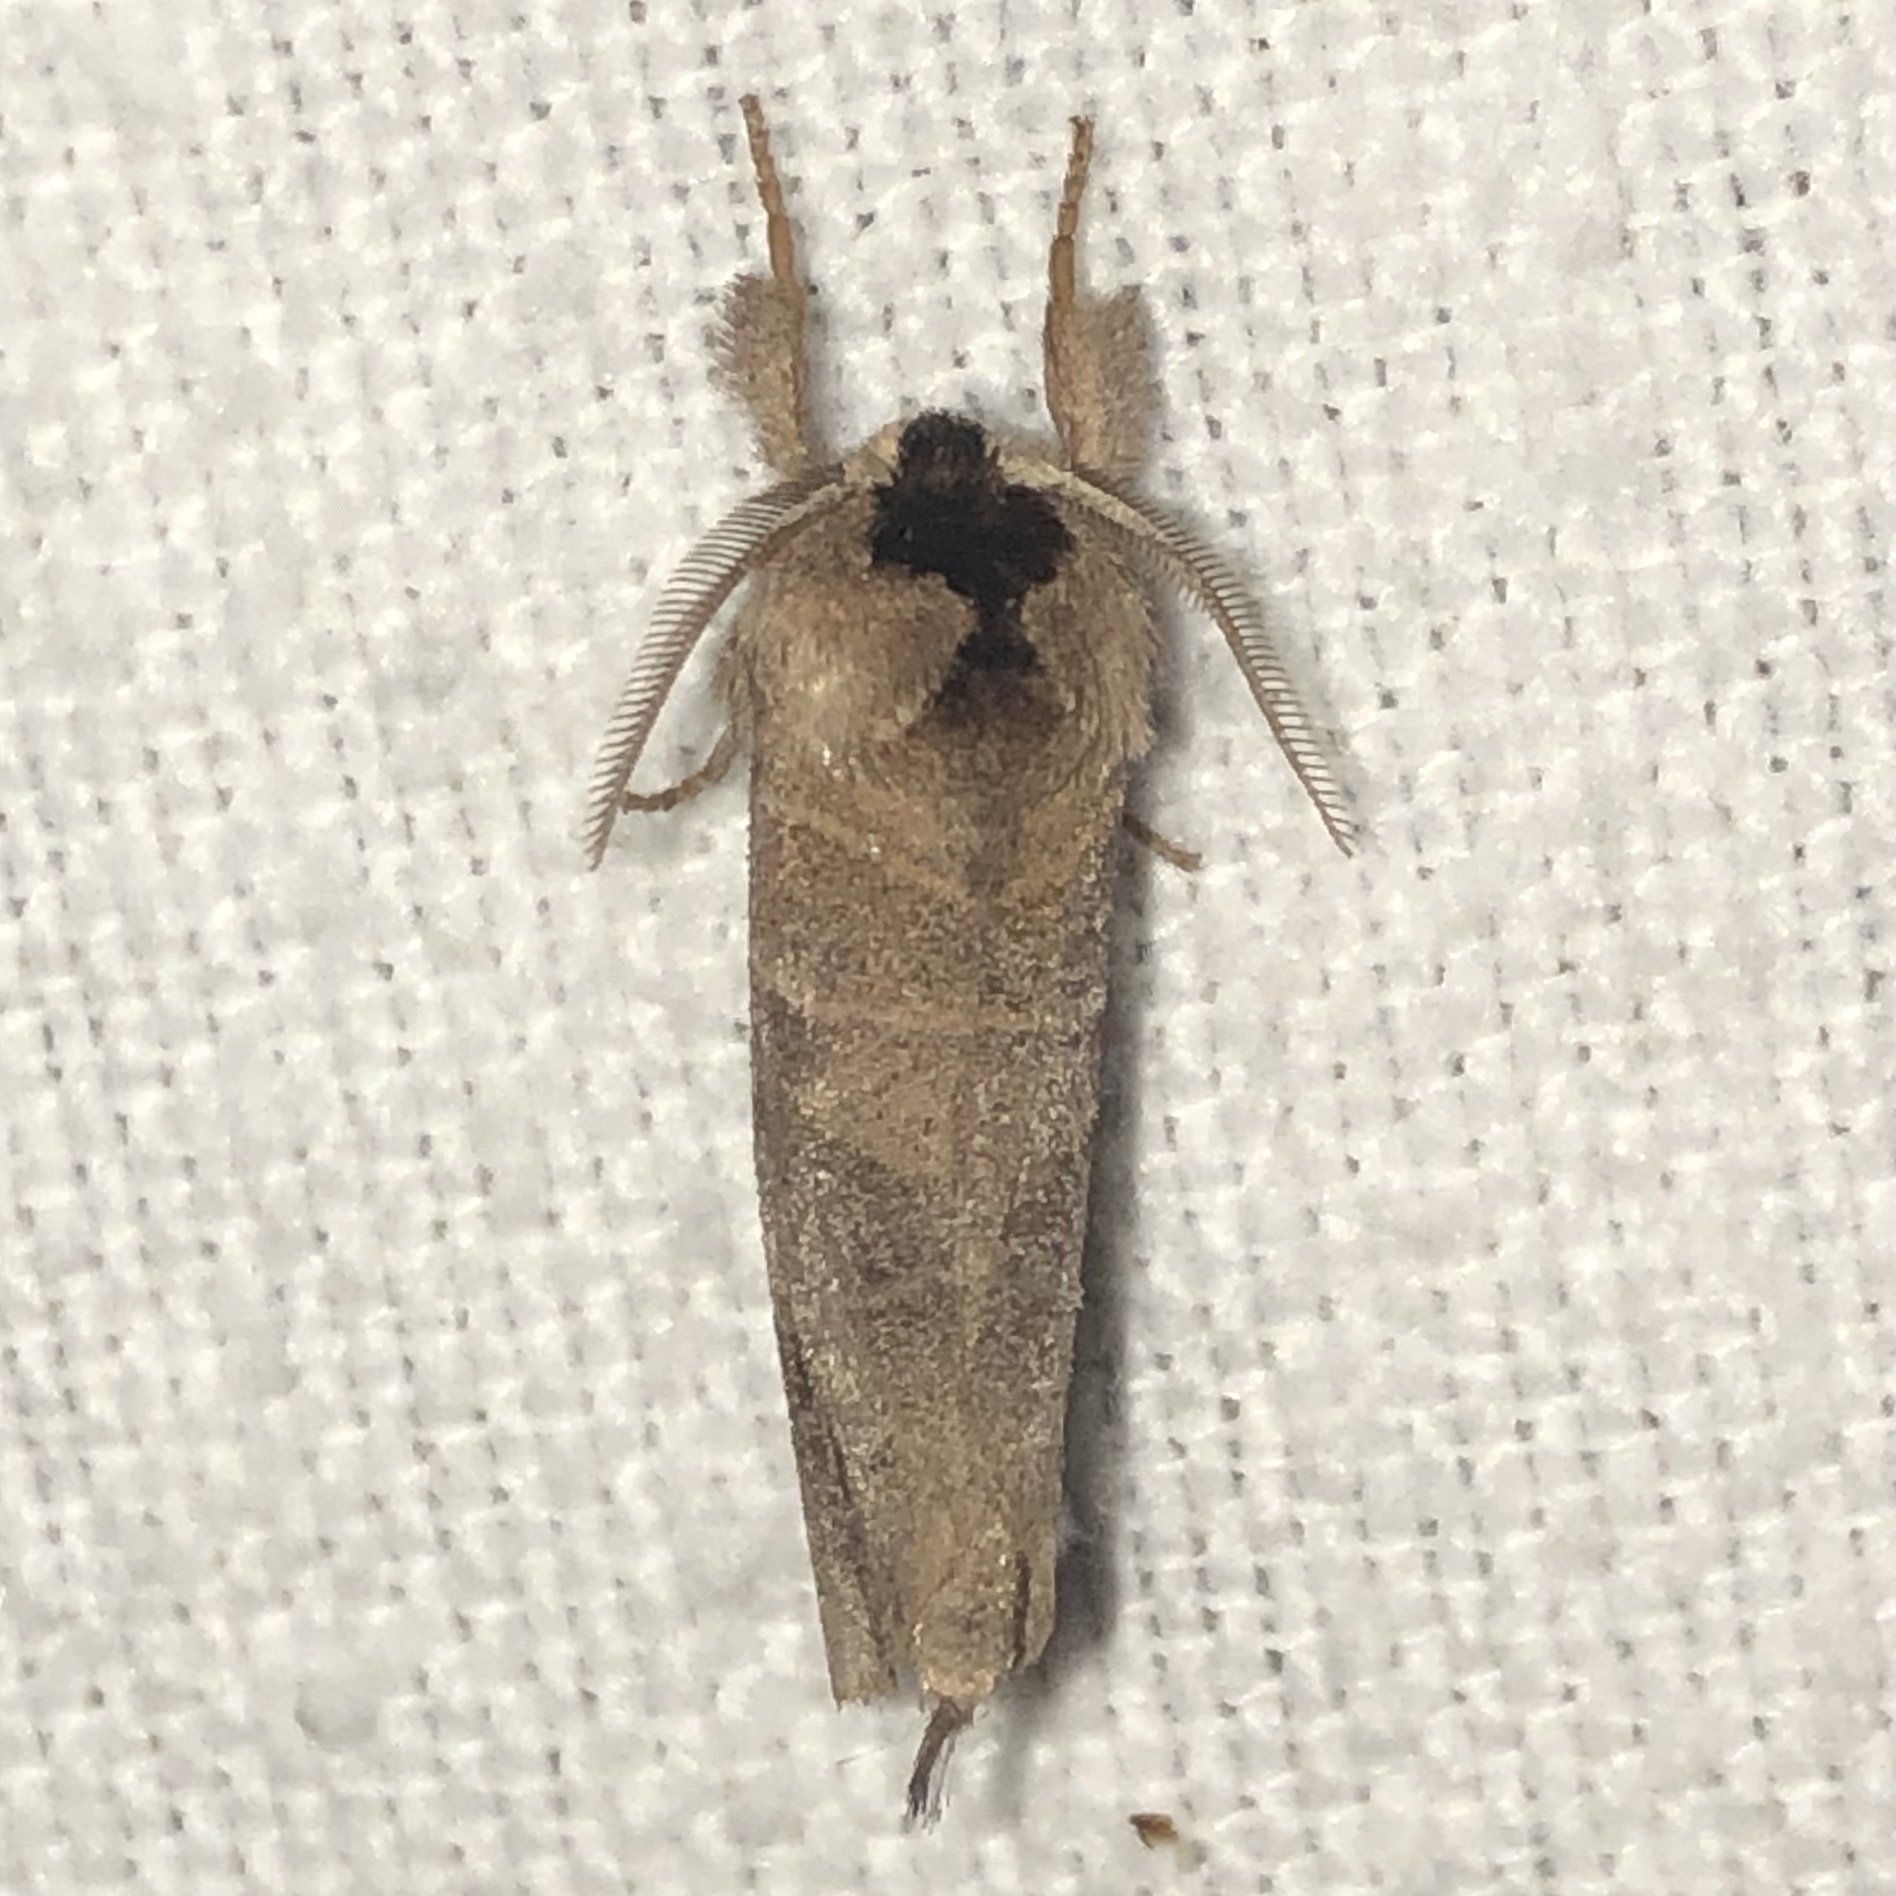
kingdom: Animalia
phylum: Arthropoda
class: Insecta
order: Lepidoptera
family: Notodontidae
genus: Clostera
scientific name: Clostera albosigma
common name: Sigmoid prominent
